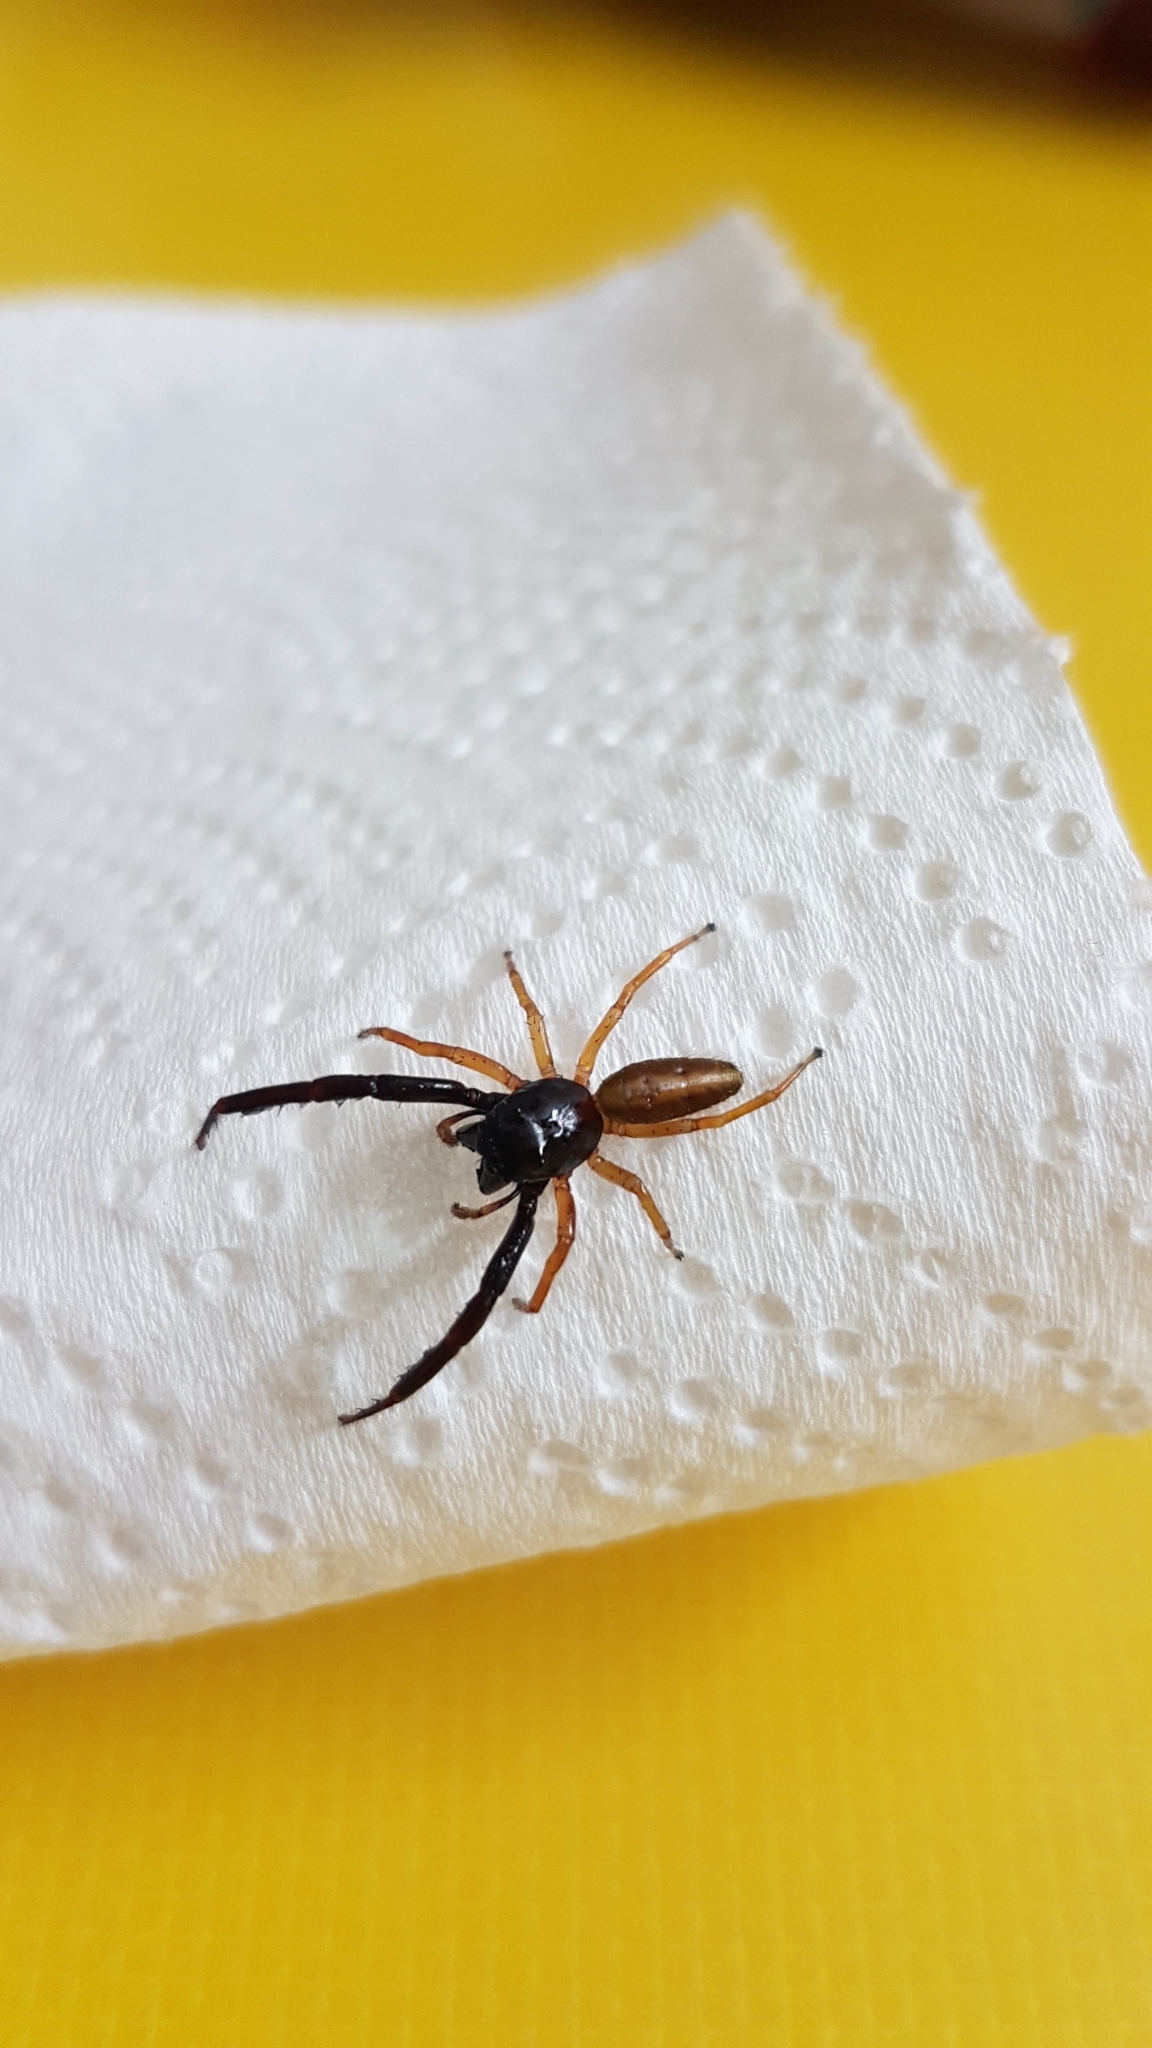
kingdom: Animalia
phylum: Arthropoda
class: Arachnida
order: Araneae
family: Salticidae
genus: Trite
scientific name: Trite planiceps
